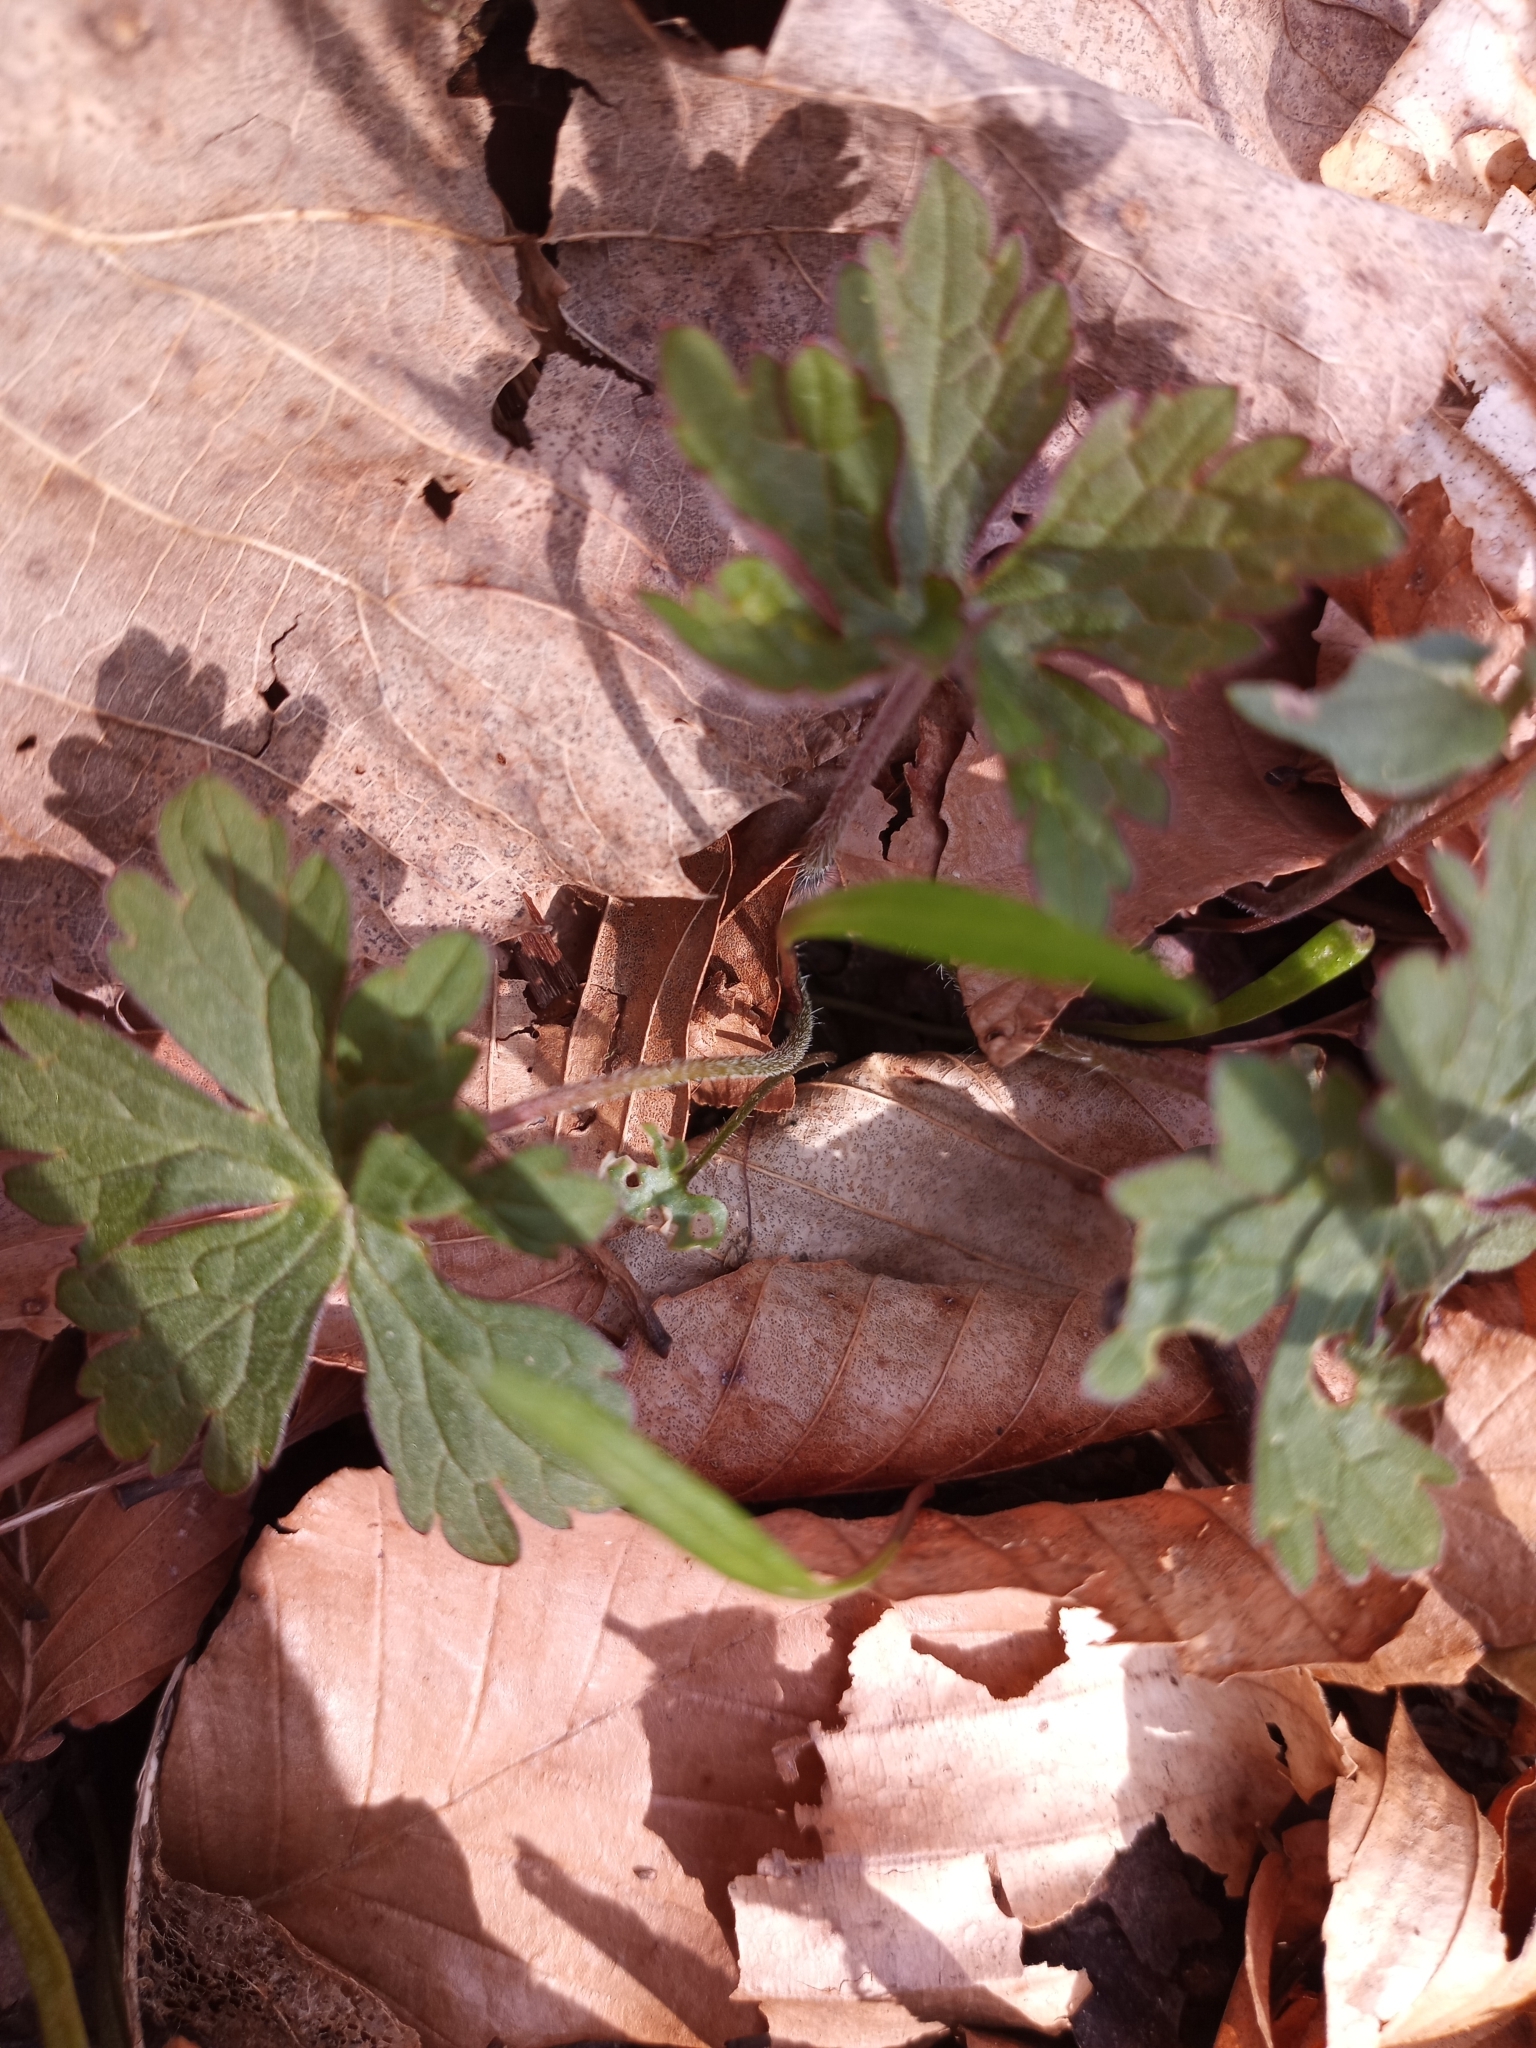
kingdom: Plantae
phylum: Tracheophyta
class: Magnoliopsida
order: Geraniales
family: Geraniaceae
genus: Geranium
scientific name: Geranium maculatum
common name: Spotted geranium
